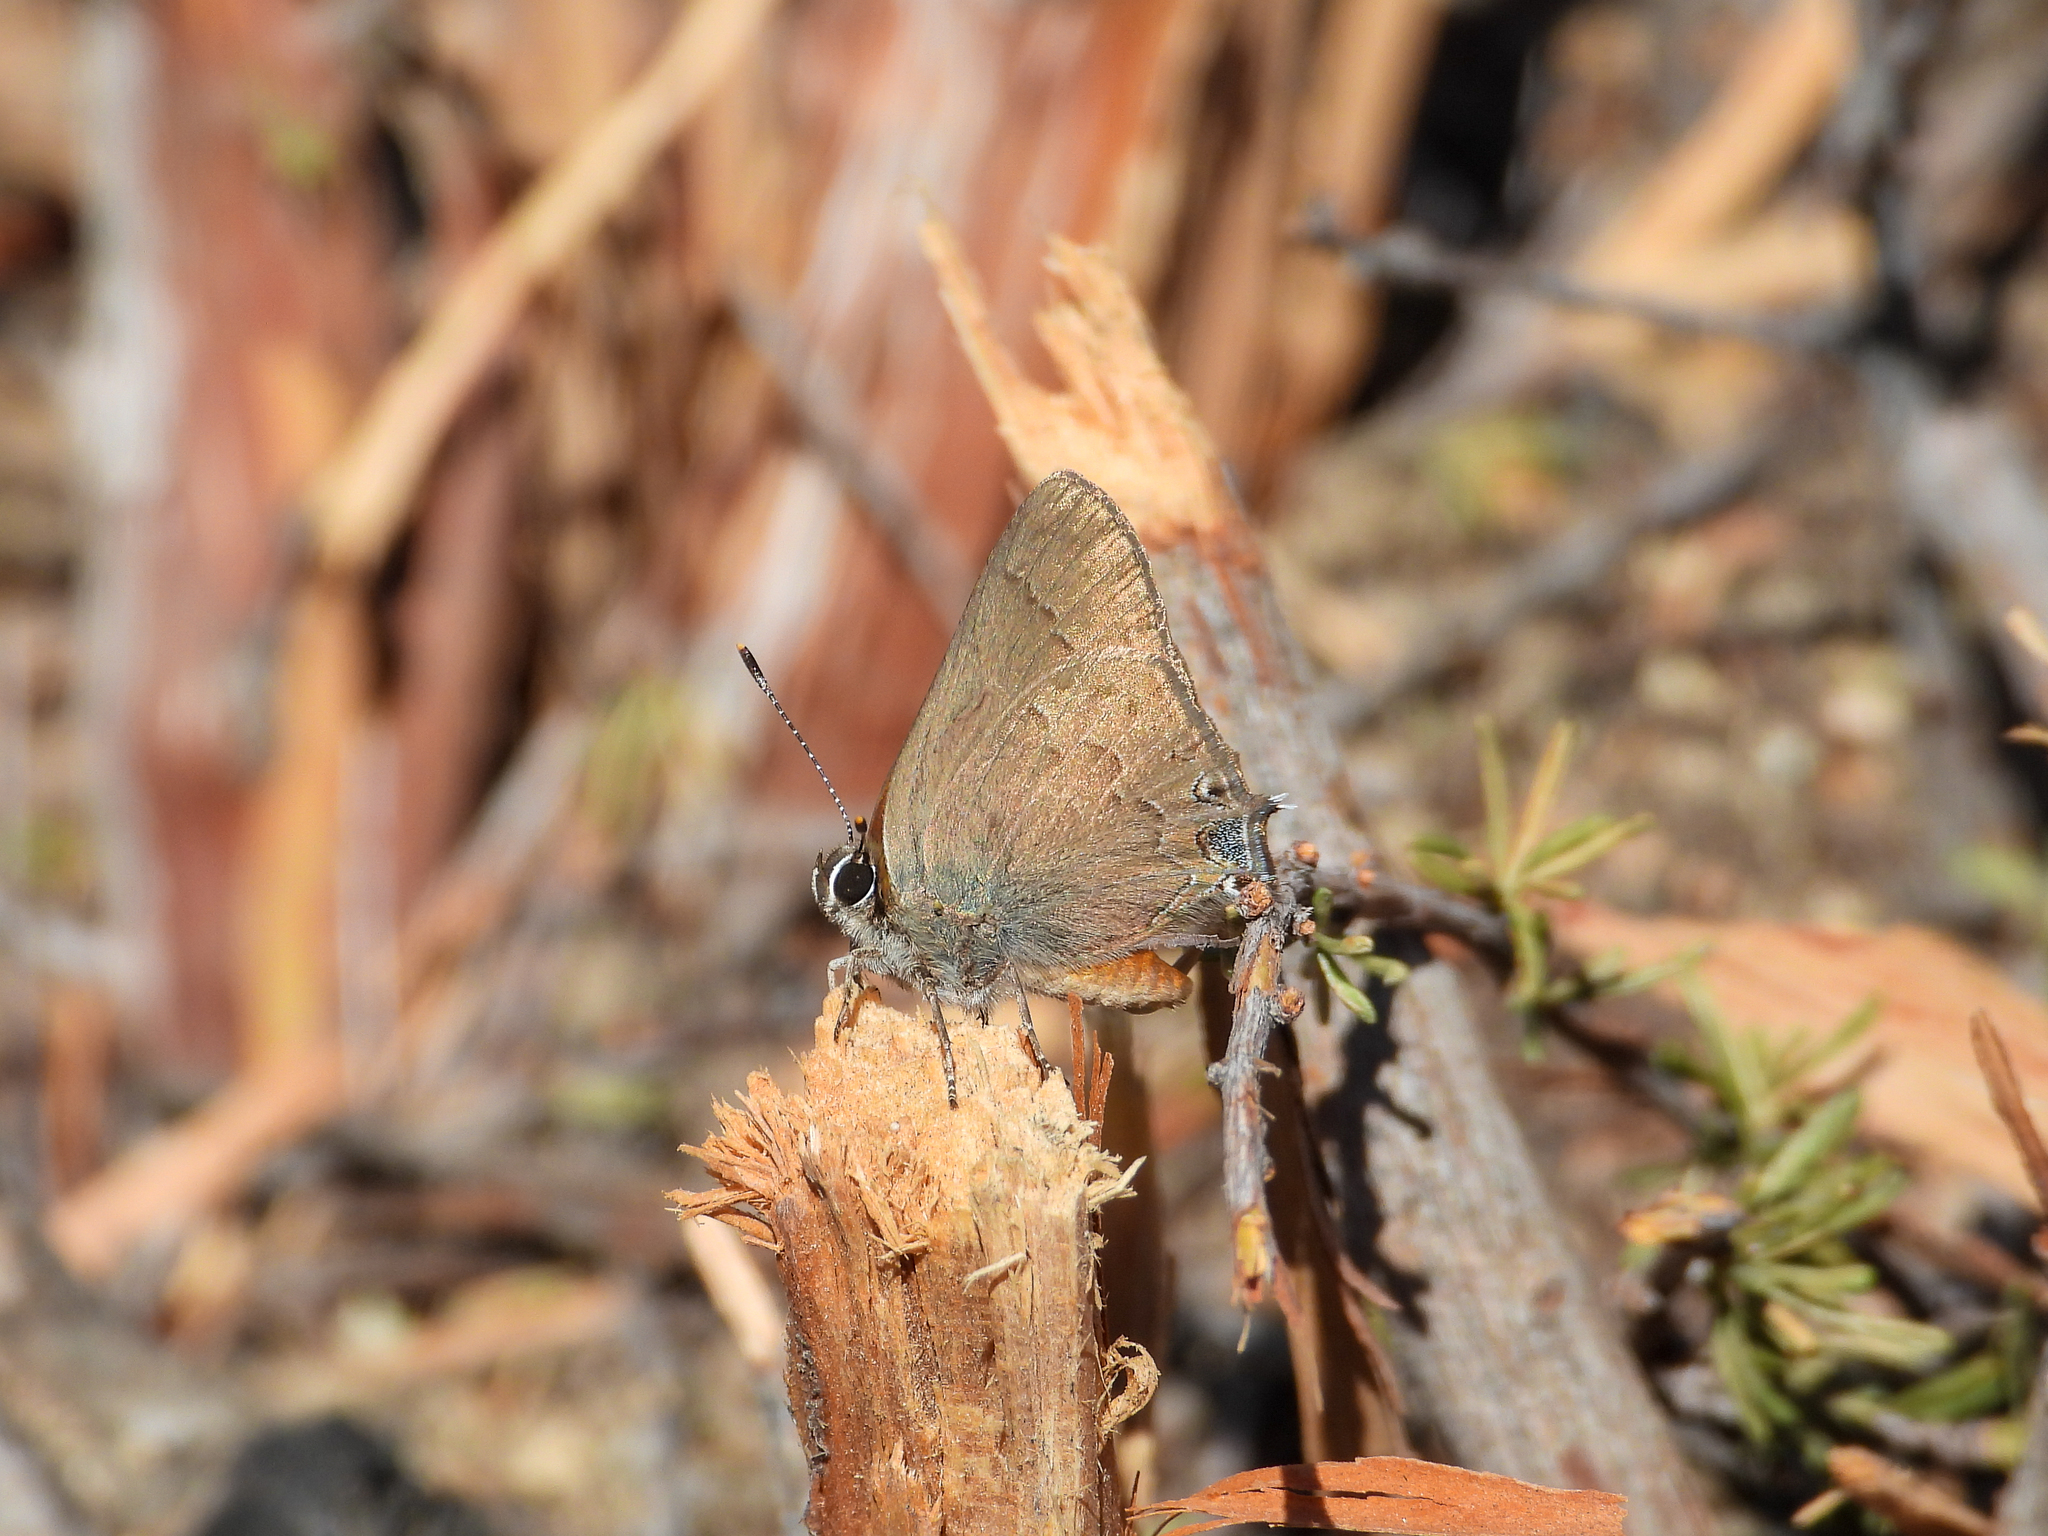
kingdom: Animalia
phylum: Arthropoda
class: Insecta
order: Lepidoptera
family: Lycaenidae
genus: Strymon
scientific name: Strymon saepium
